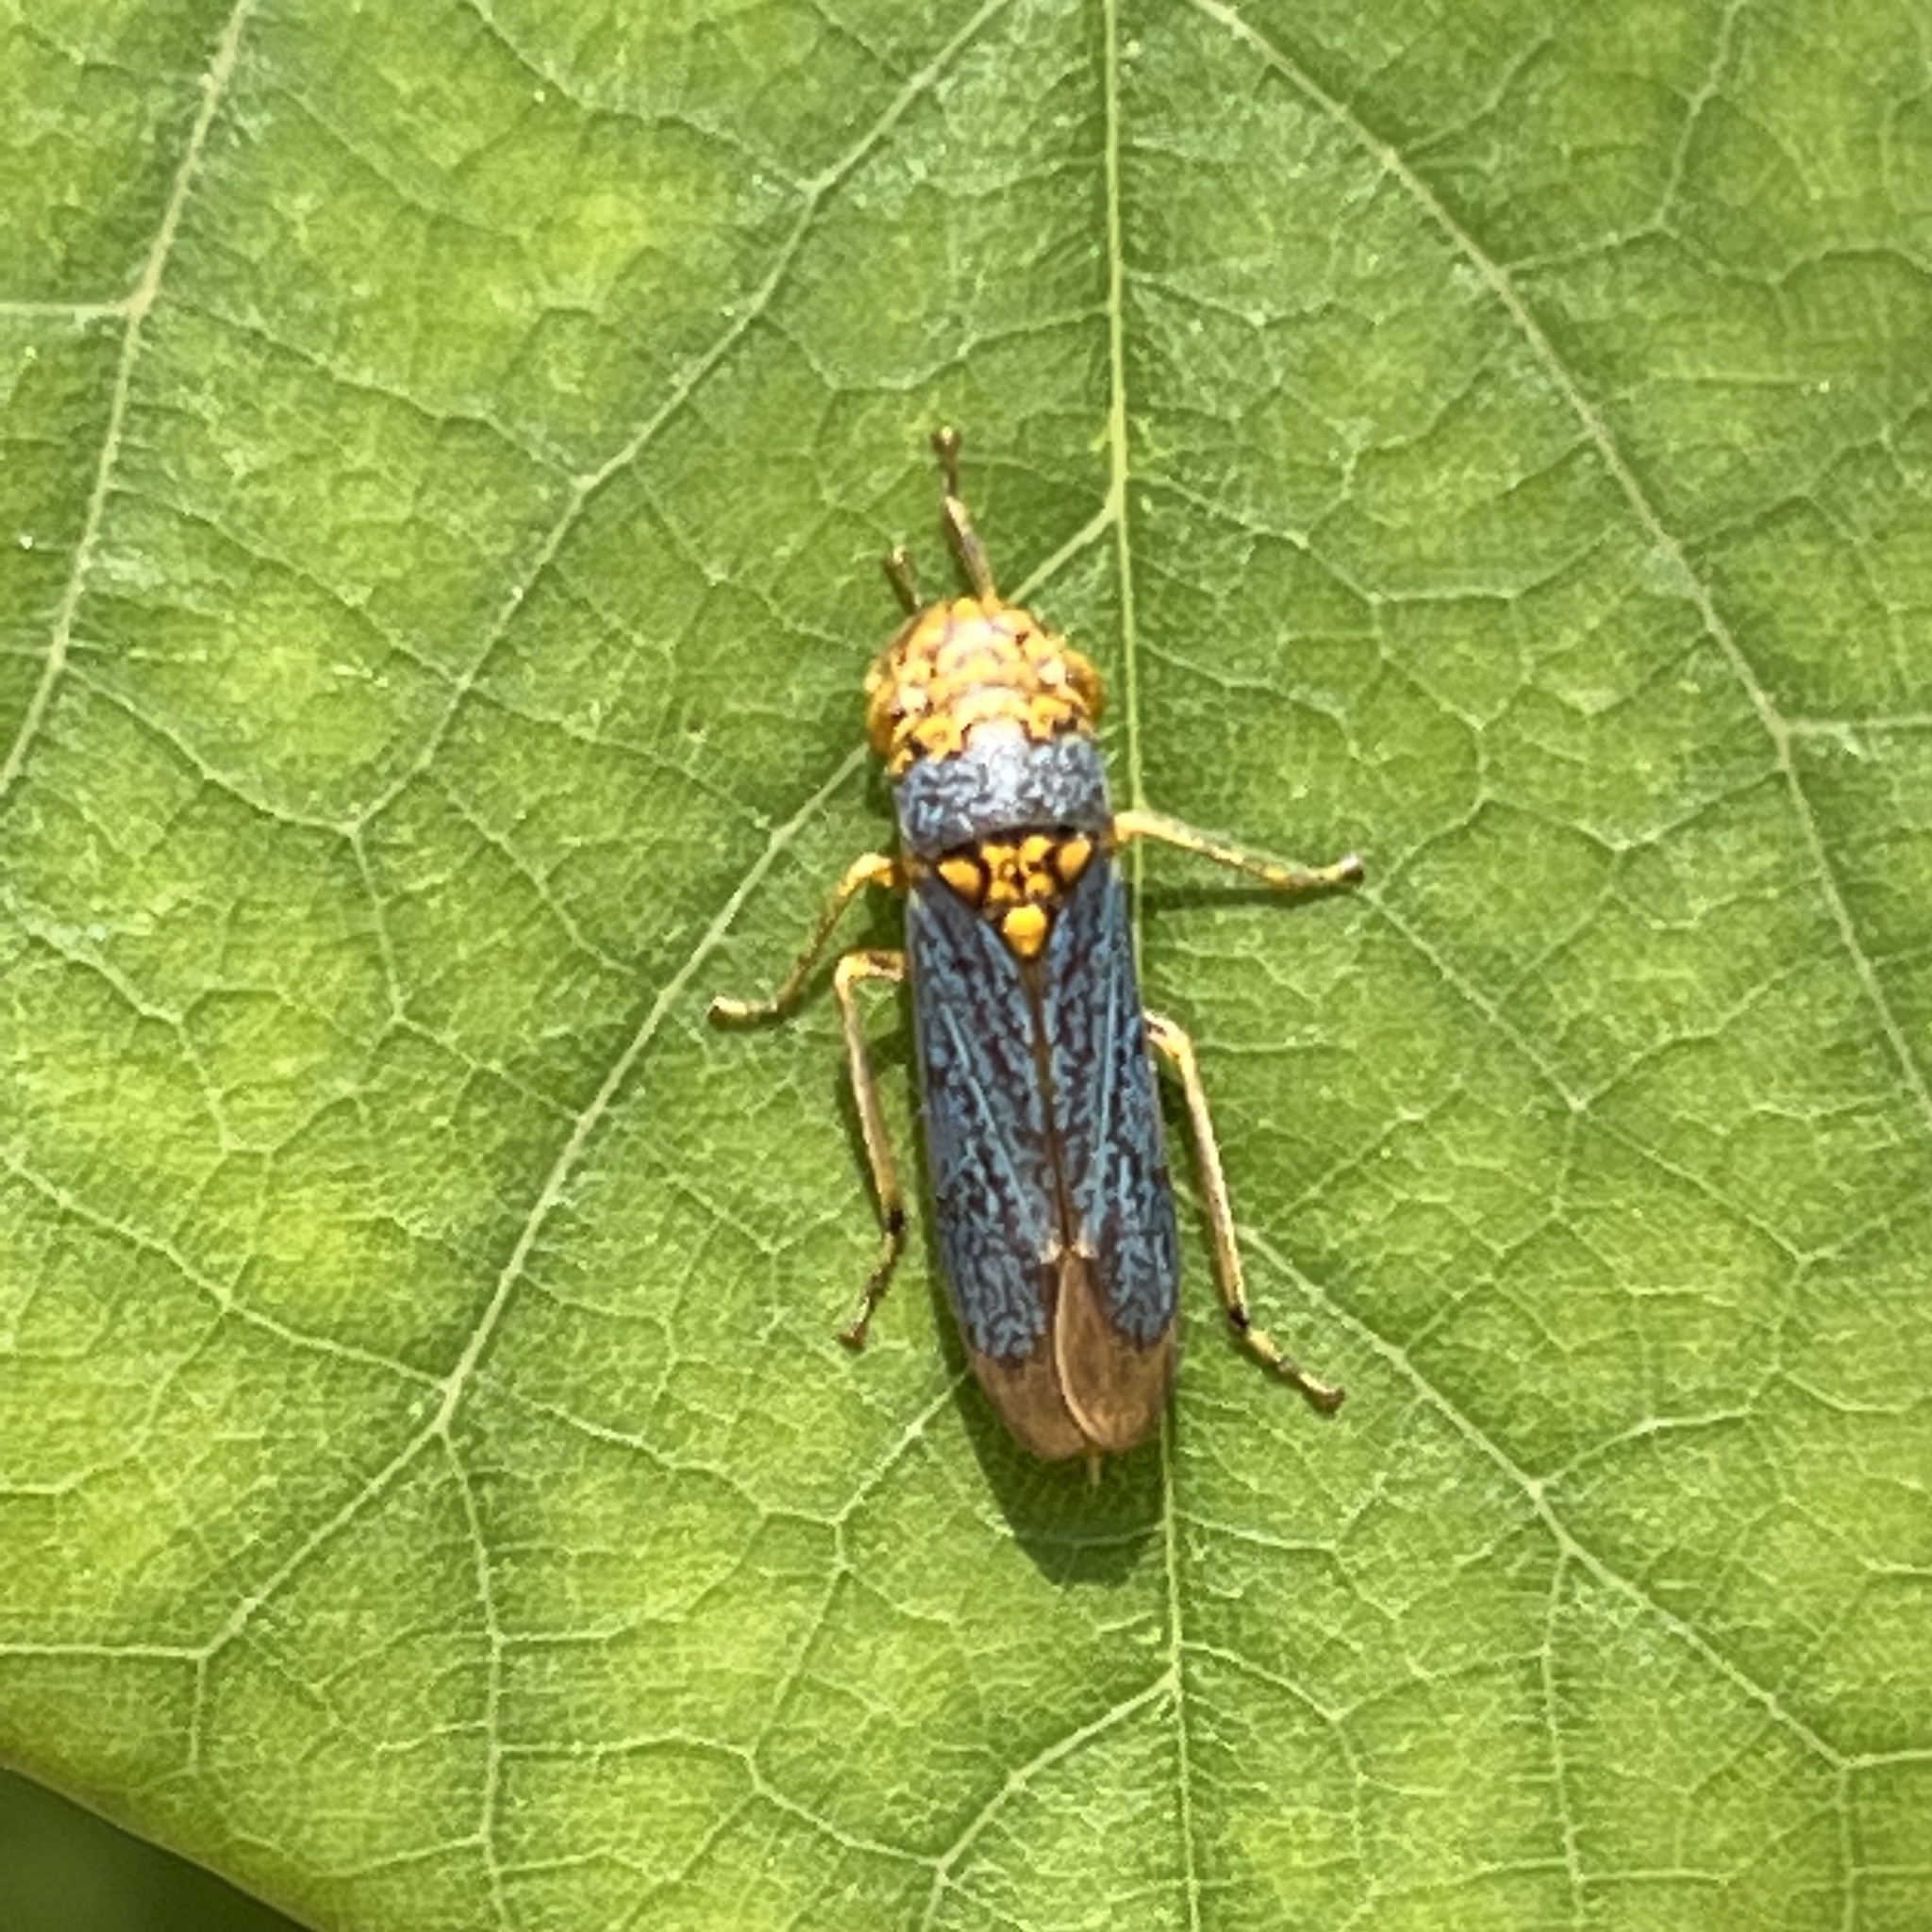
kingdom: Animalia
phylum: Arthropoda
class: Insecta
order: Hemiptera
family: Cicadellidae
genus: Oncometopia
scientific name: Oncometopia orbona
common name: Broad-headed sharpshooter
